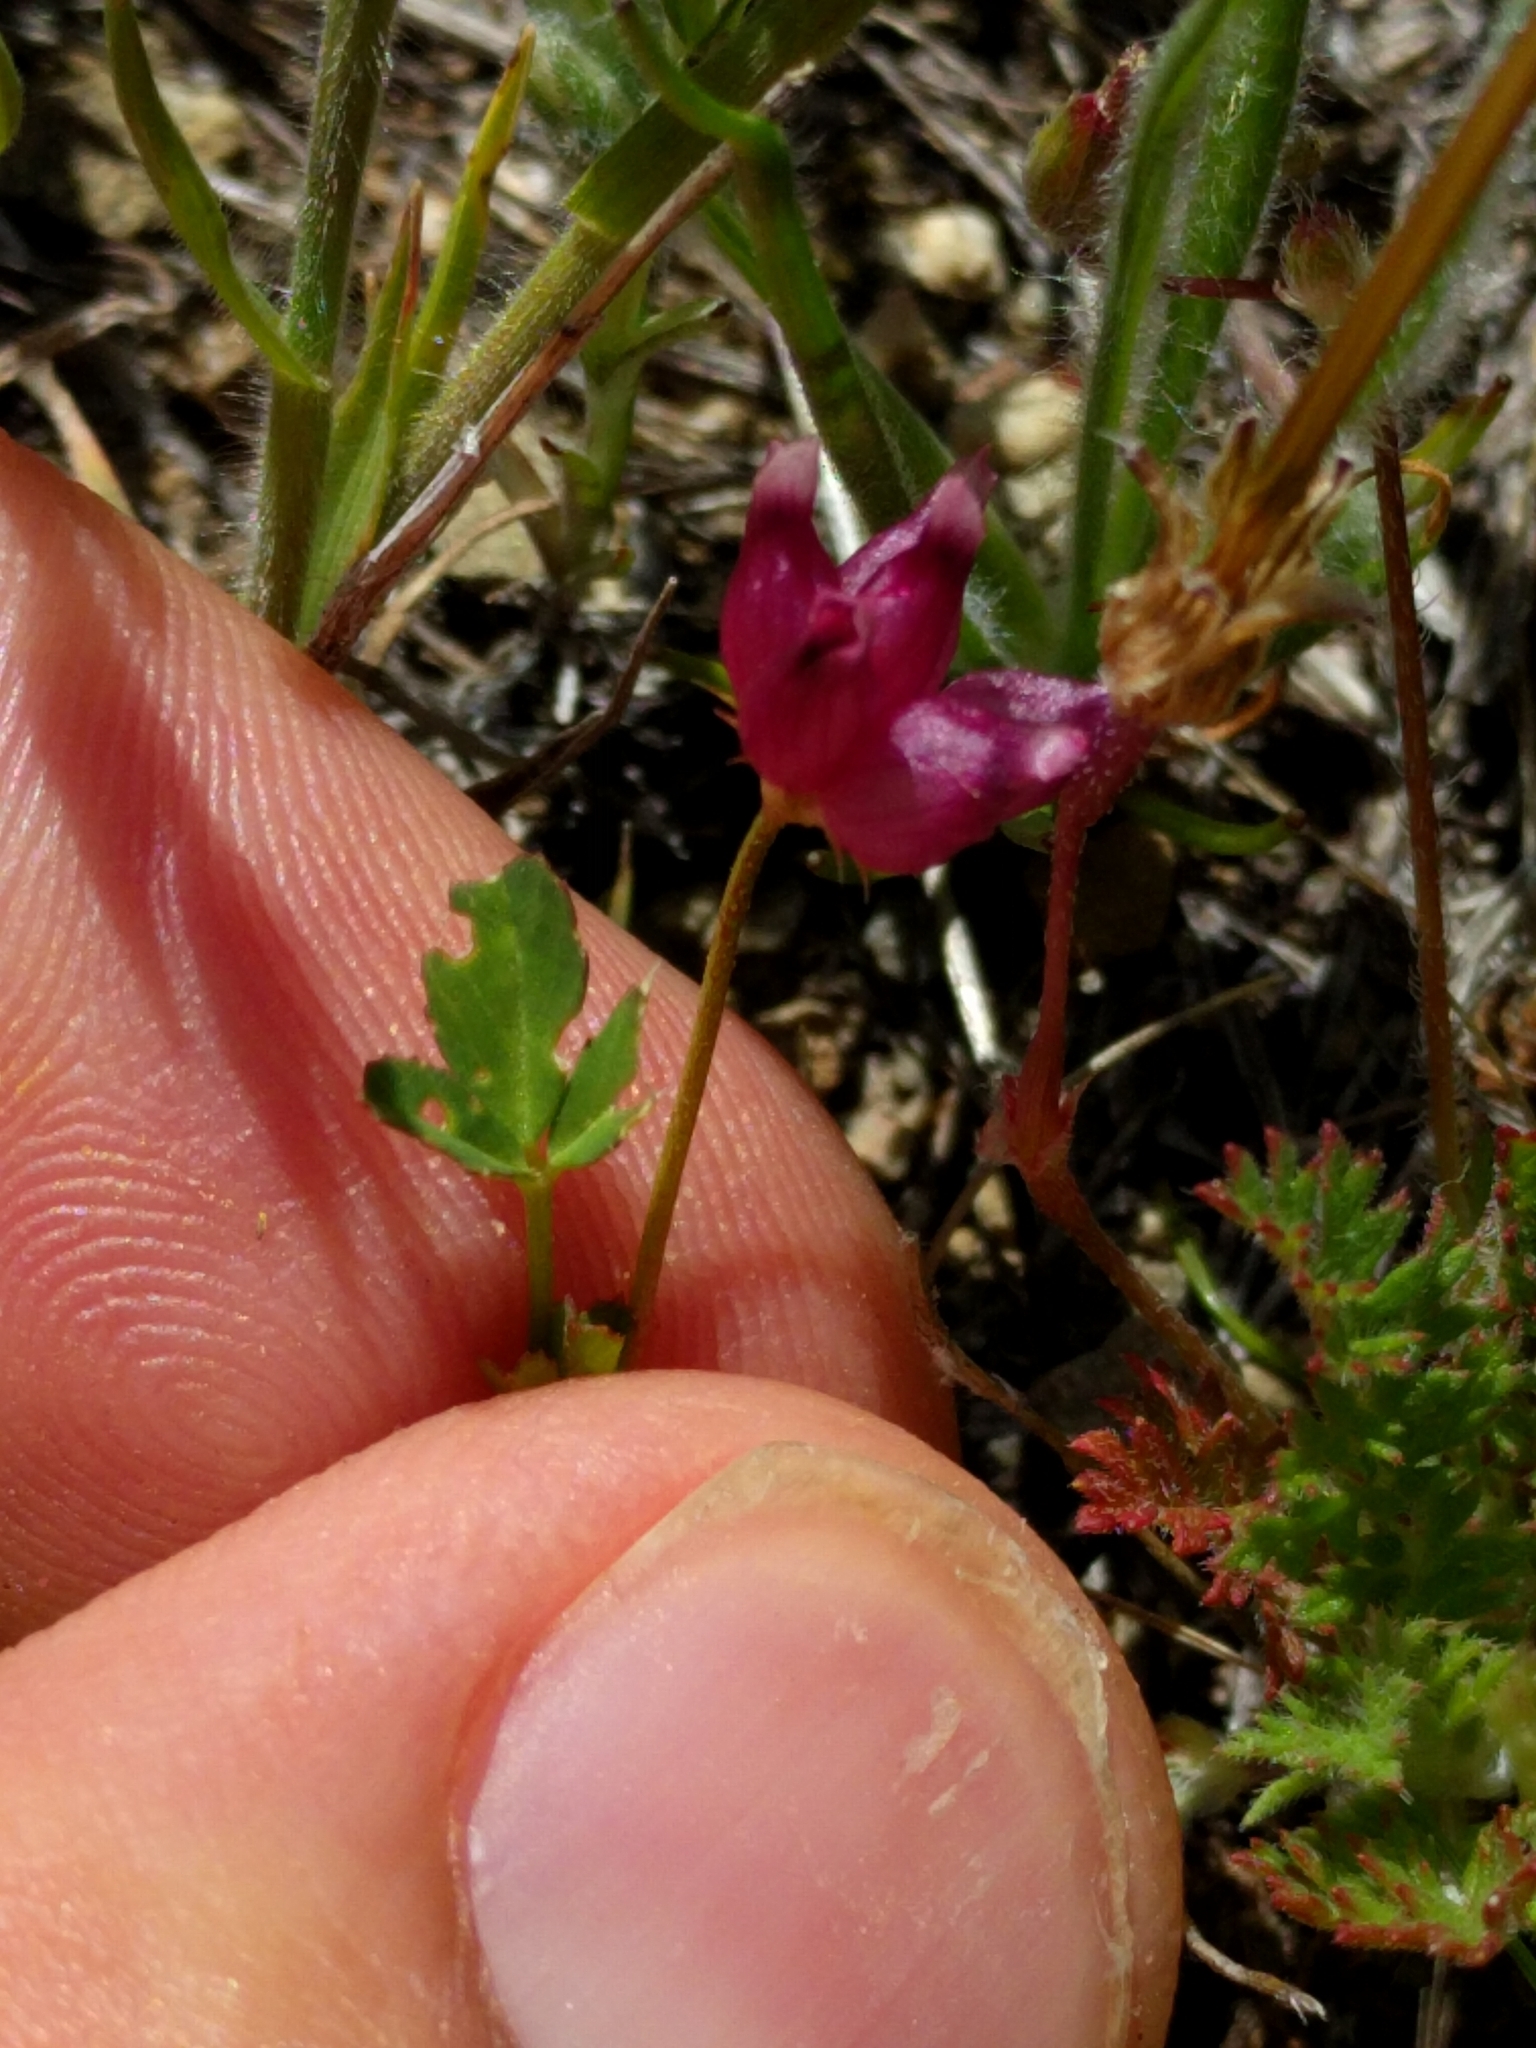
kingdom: Plantae
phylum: Tracheophyta
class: Magnoliopsida
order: Fabales
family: Fabaceae
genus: Trifolium
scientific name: Trifolium depauperatum
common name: Poverty clover
